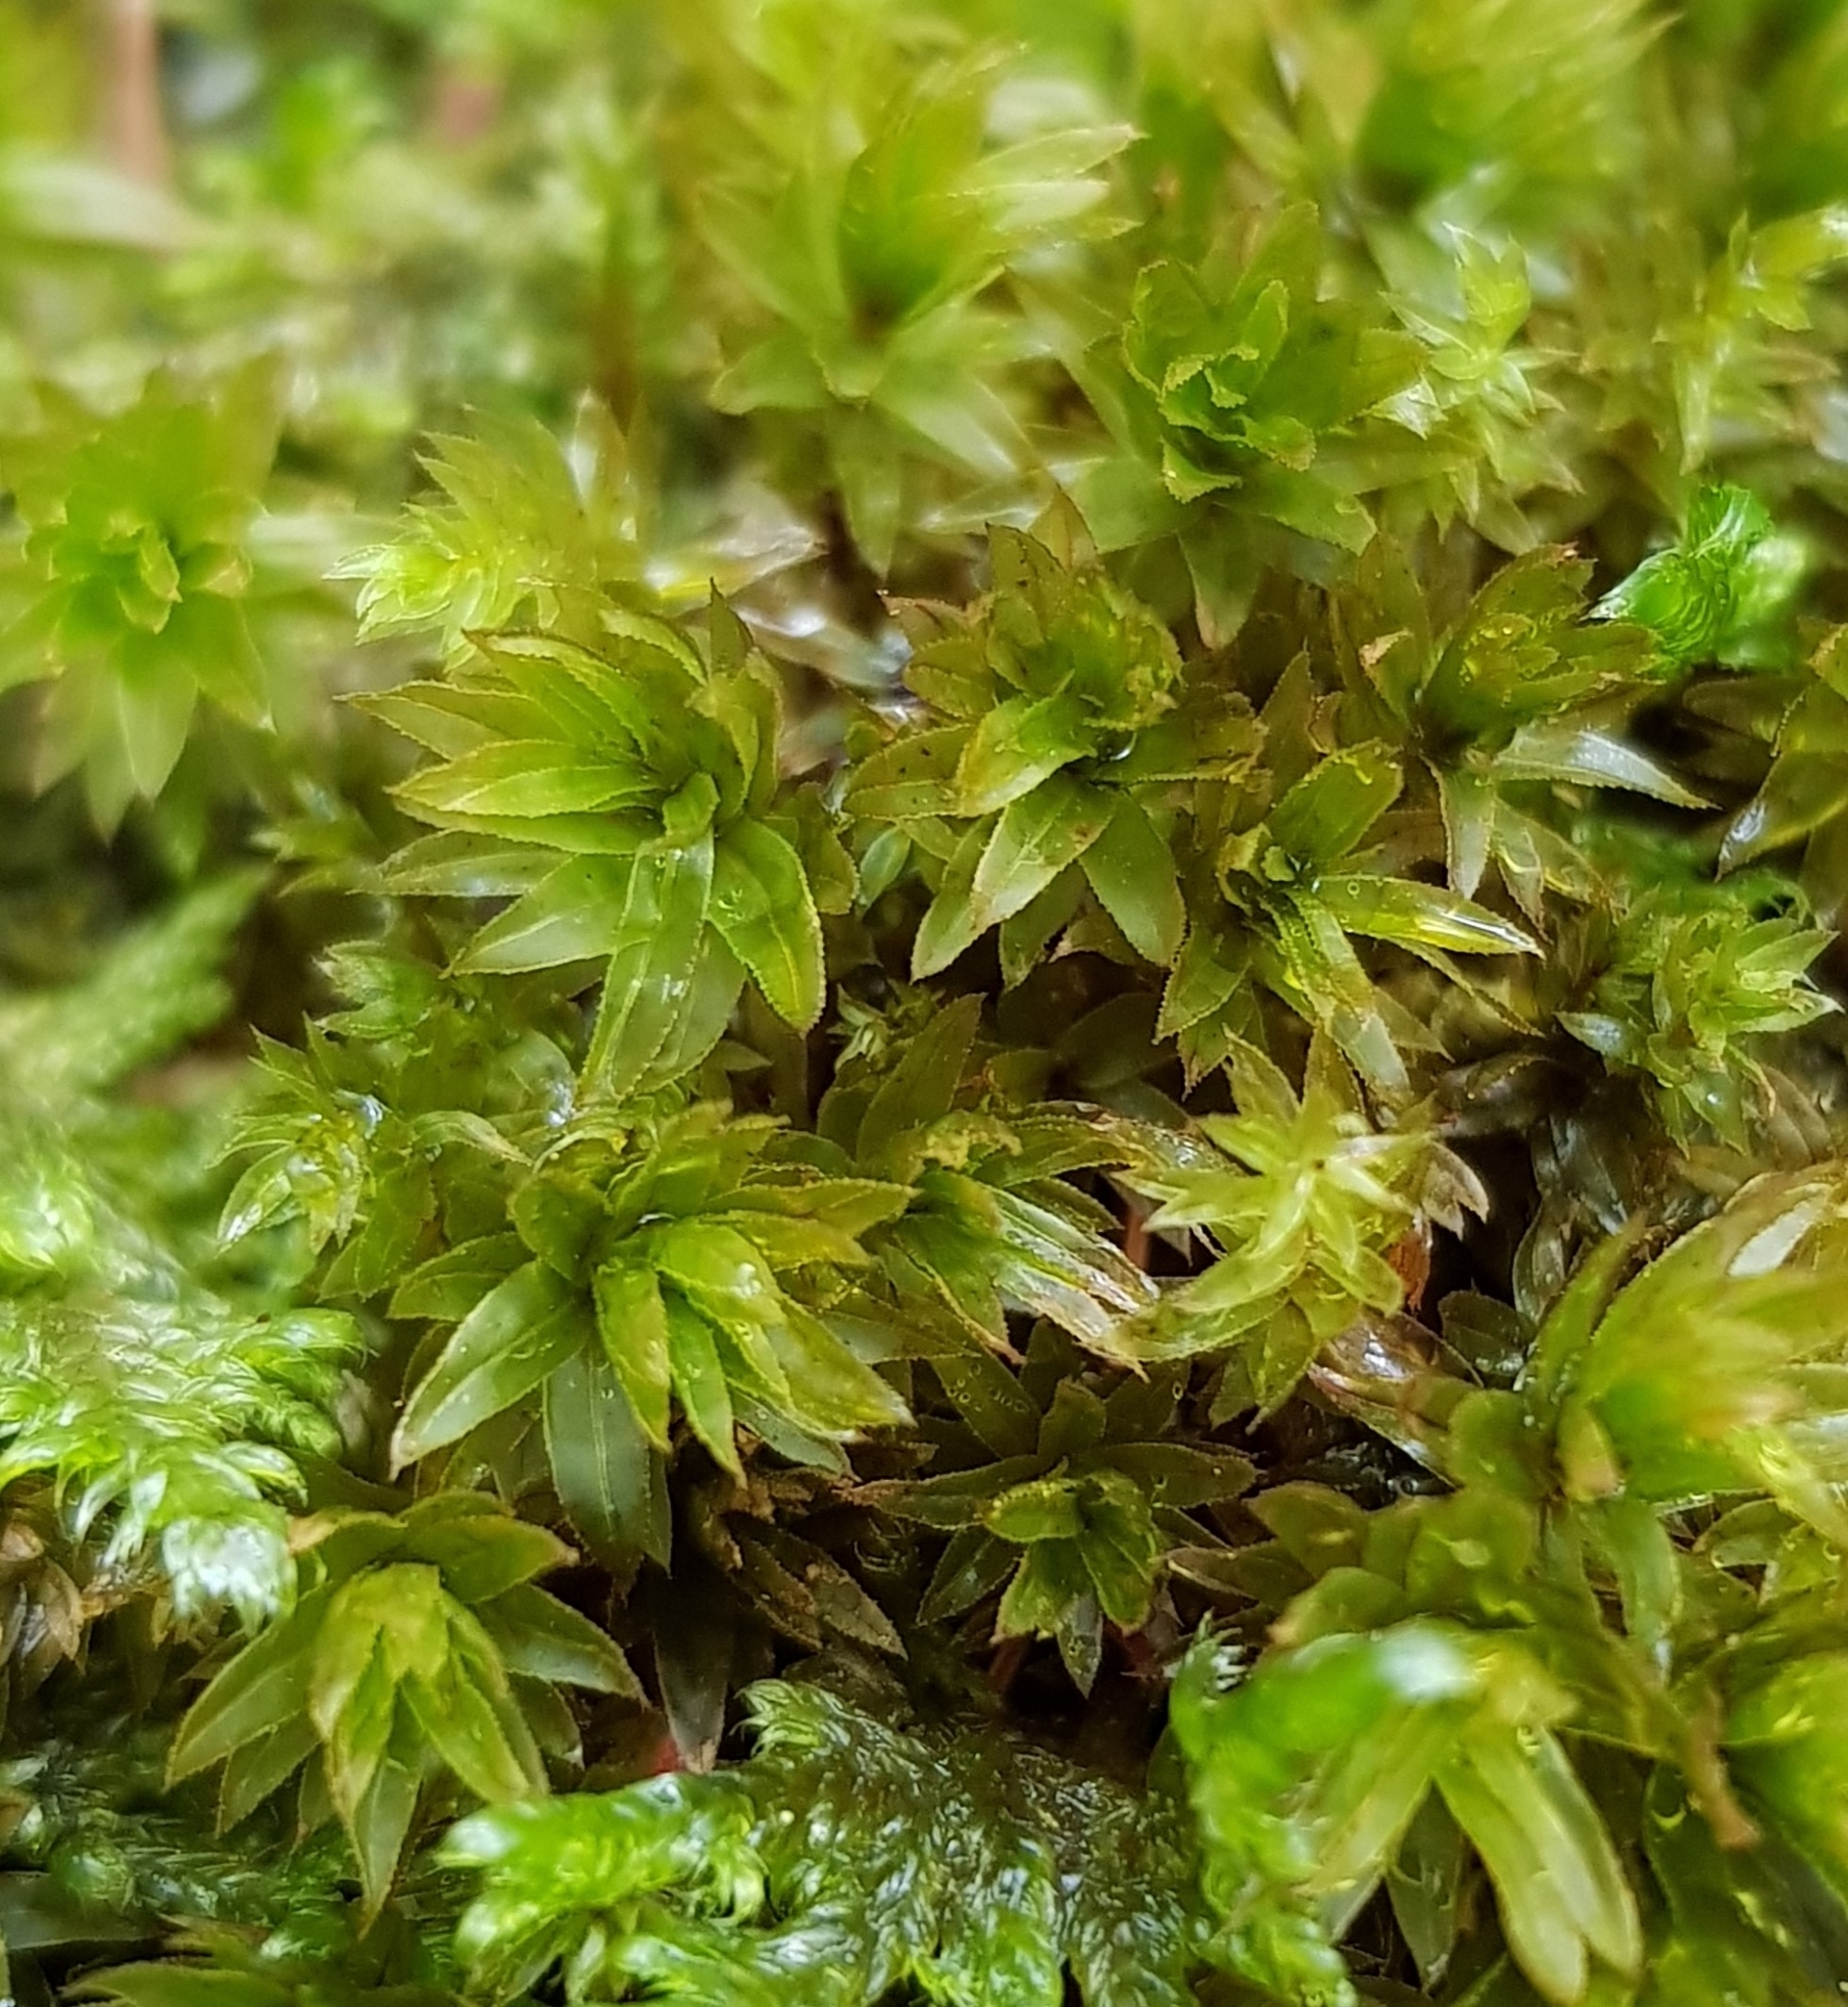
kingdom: Plantae
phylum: Bryophyta
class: Bryopsida
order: Bryales
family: Mniaceae
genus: Mnium
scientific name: Mnium hornum
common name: Swan's-neck leafy moss
